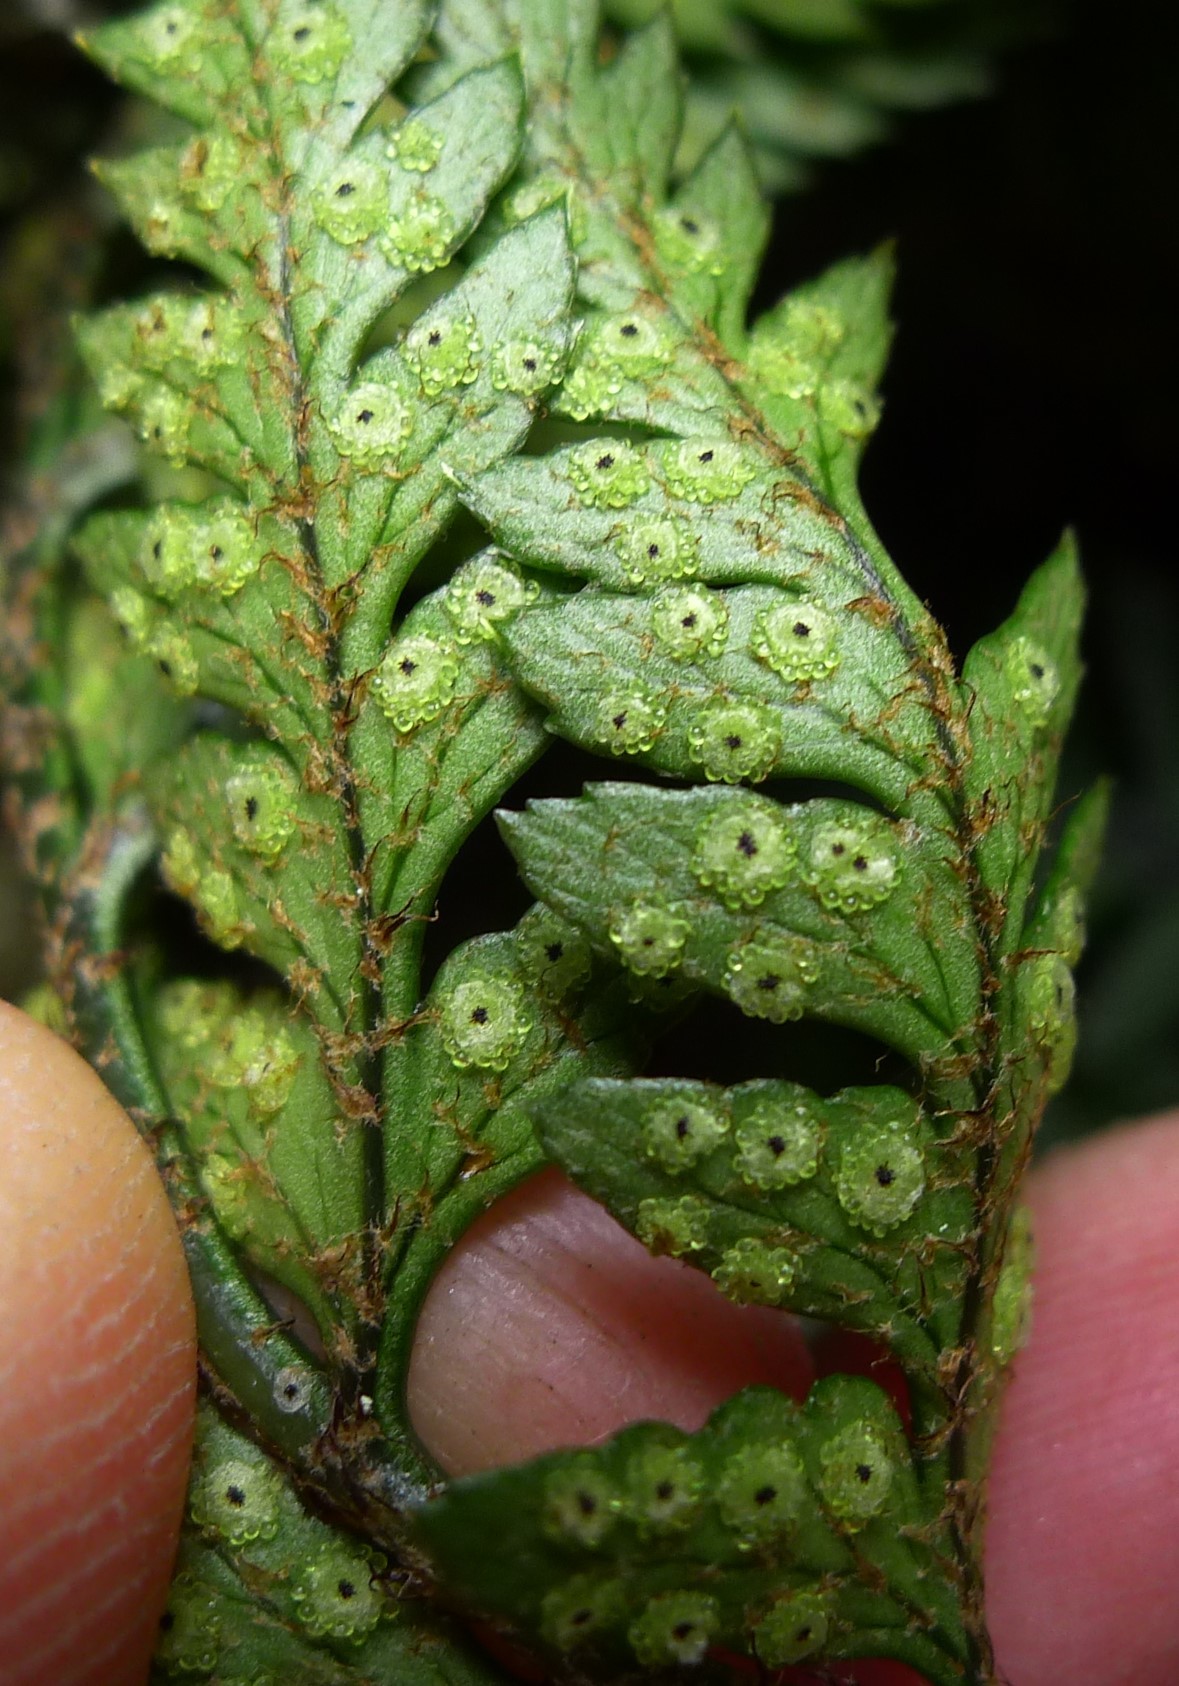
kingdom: Plantae
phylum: Tracheophyta
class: Polypodiopsida
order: Polypodiales
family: Dryopteridaceae
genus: Polystichum
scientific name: Polystichum neozelandicum
